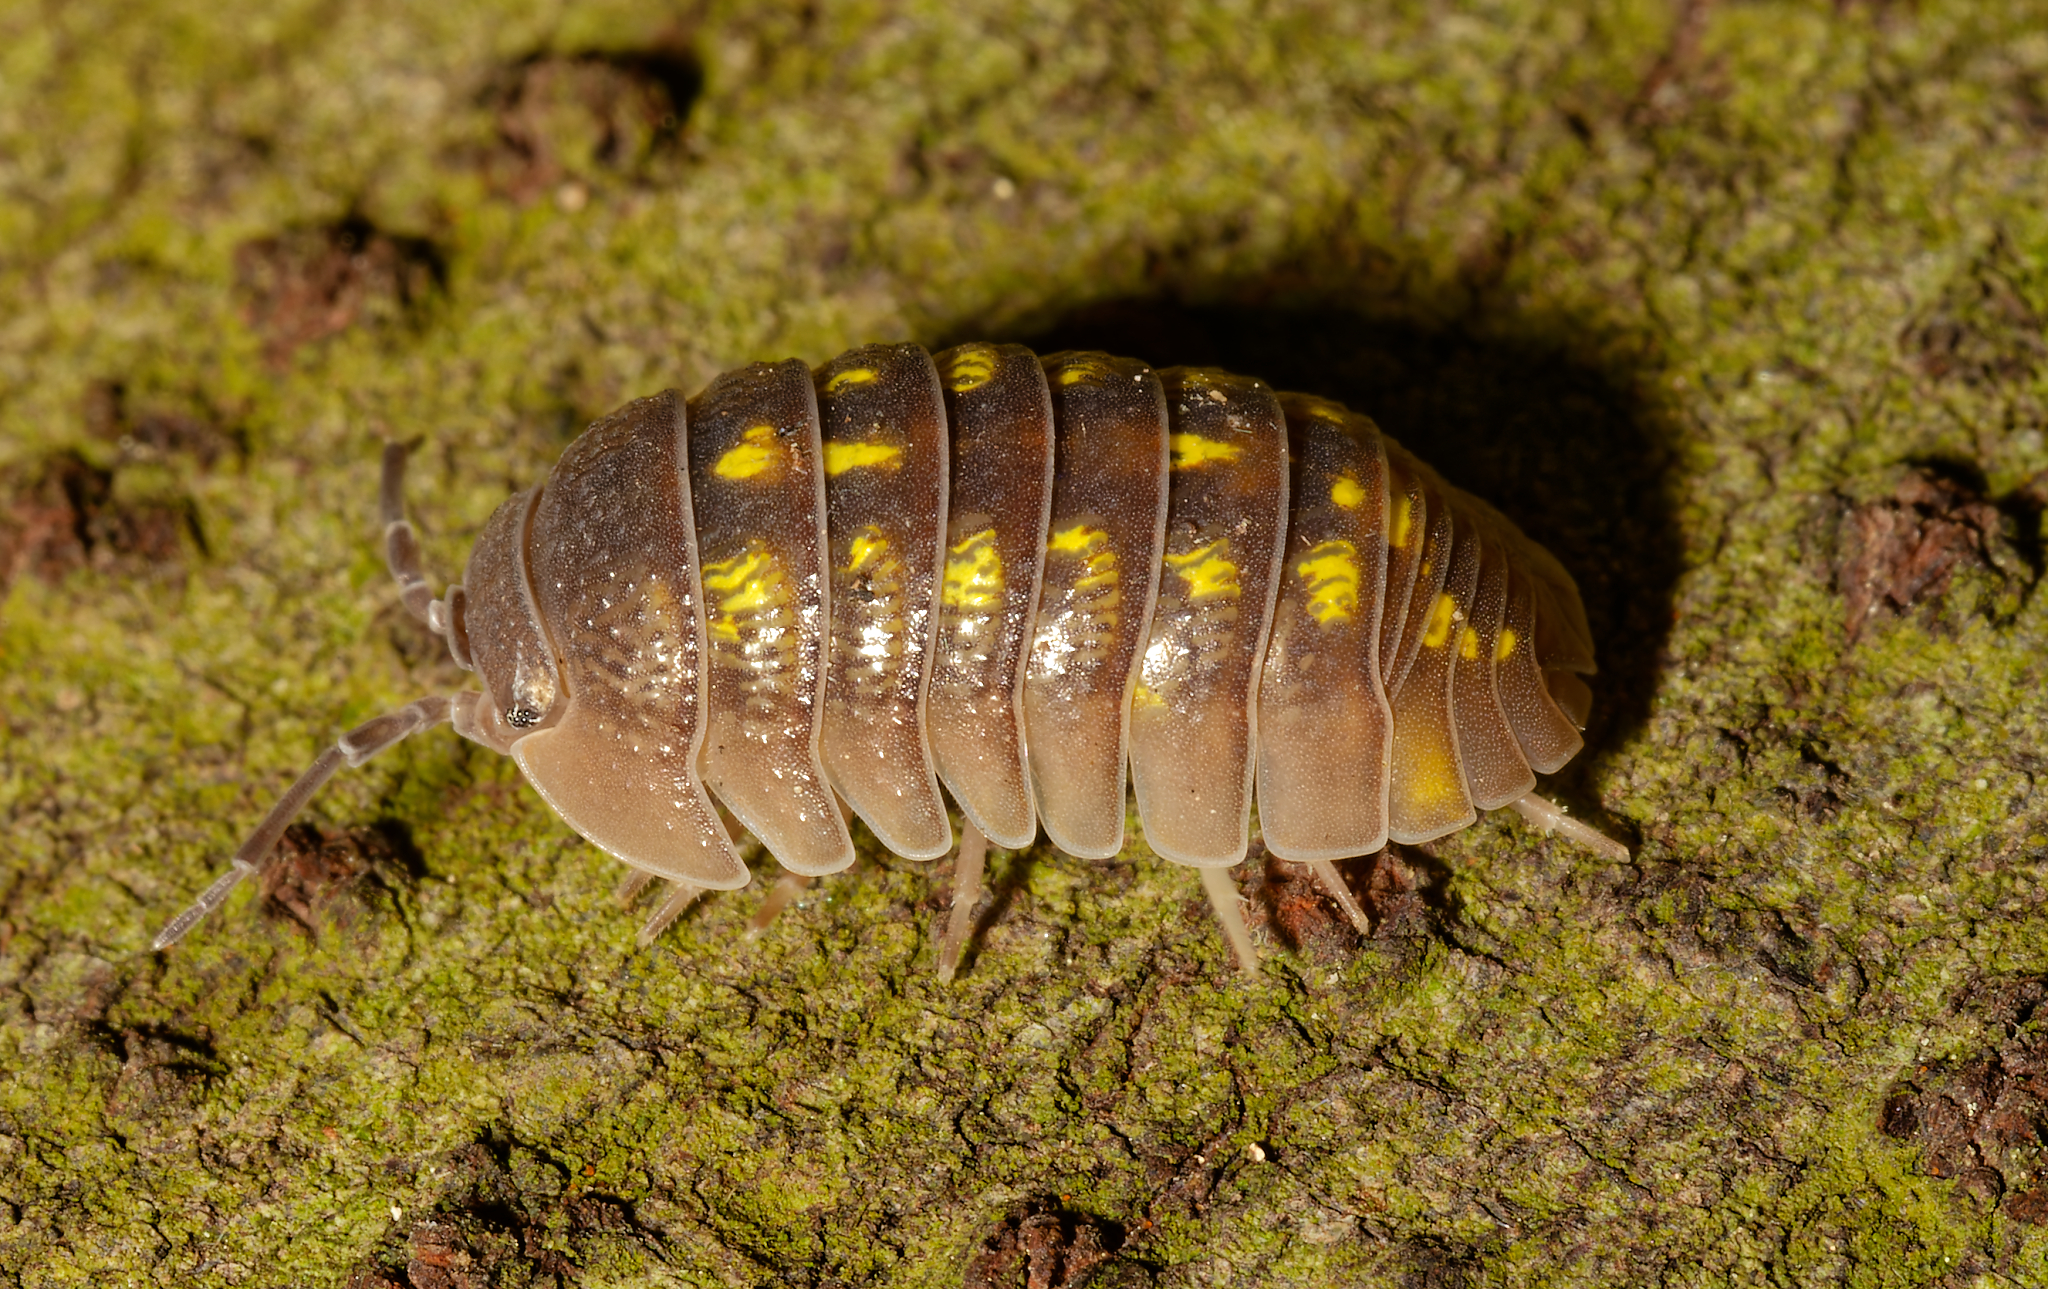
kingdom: Animalia
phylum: Arthropoda
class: Malacostraca
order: Isopoda
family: Armadillidiidae
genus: Armadillidium
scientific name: Armadillidium granulatum
